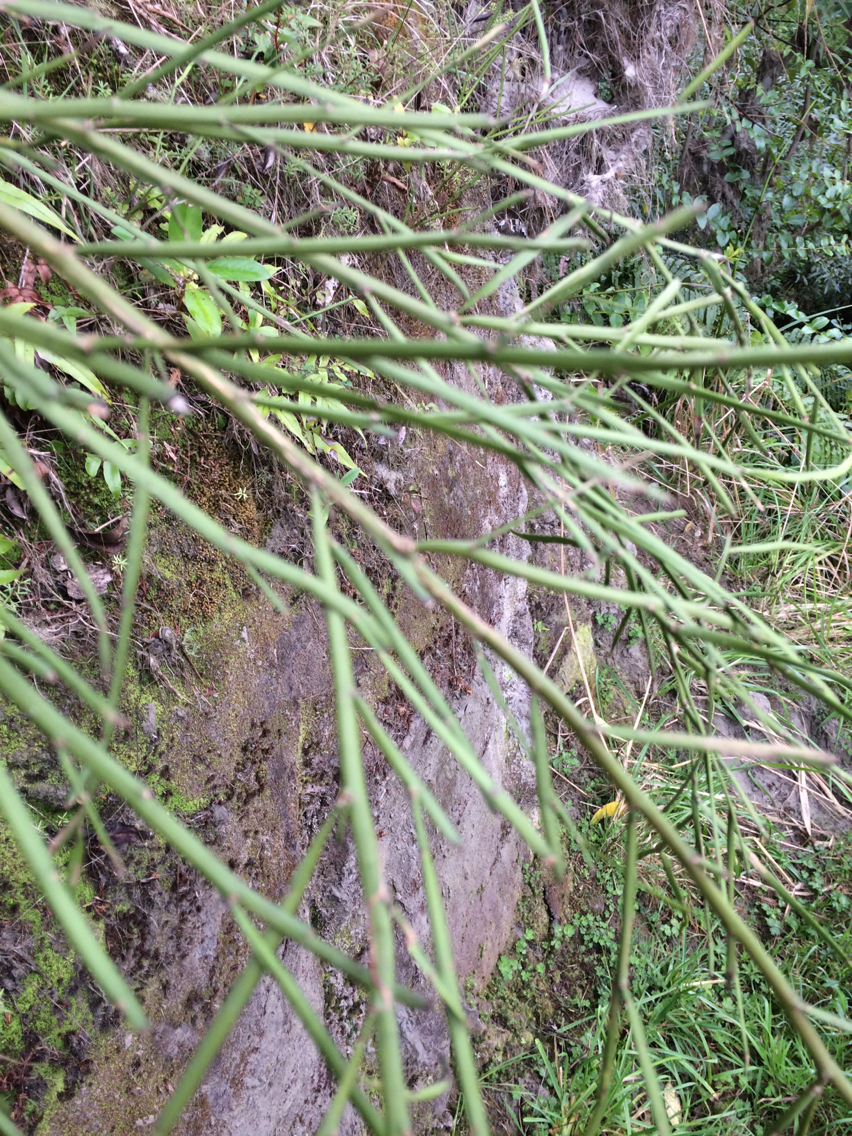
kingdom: Plantae
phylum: Tracheophyta
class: Magnoliopsida
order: Fabales
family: Fabaceae
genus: Carmichaelia
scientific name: Carmichaelia australis
